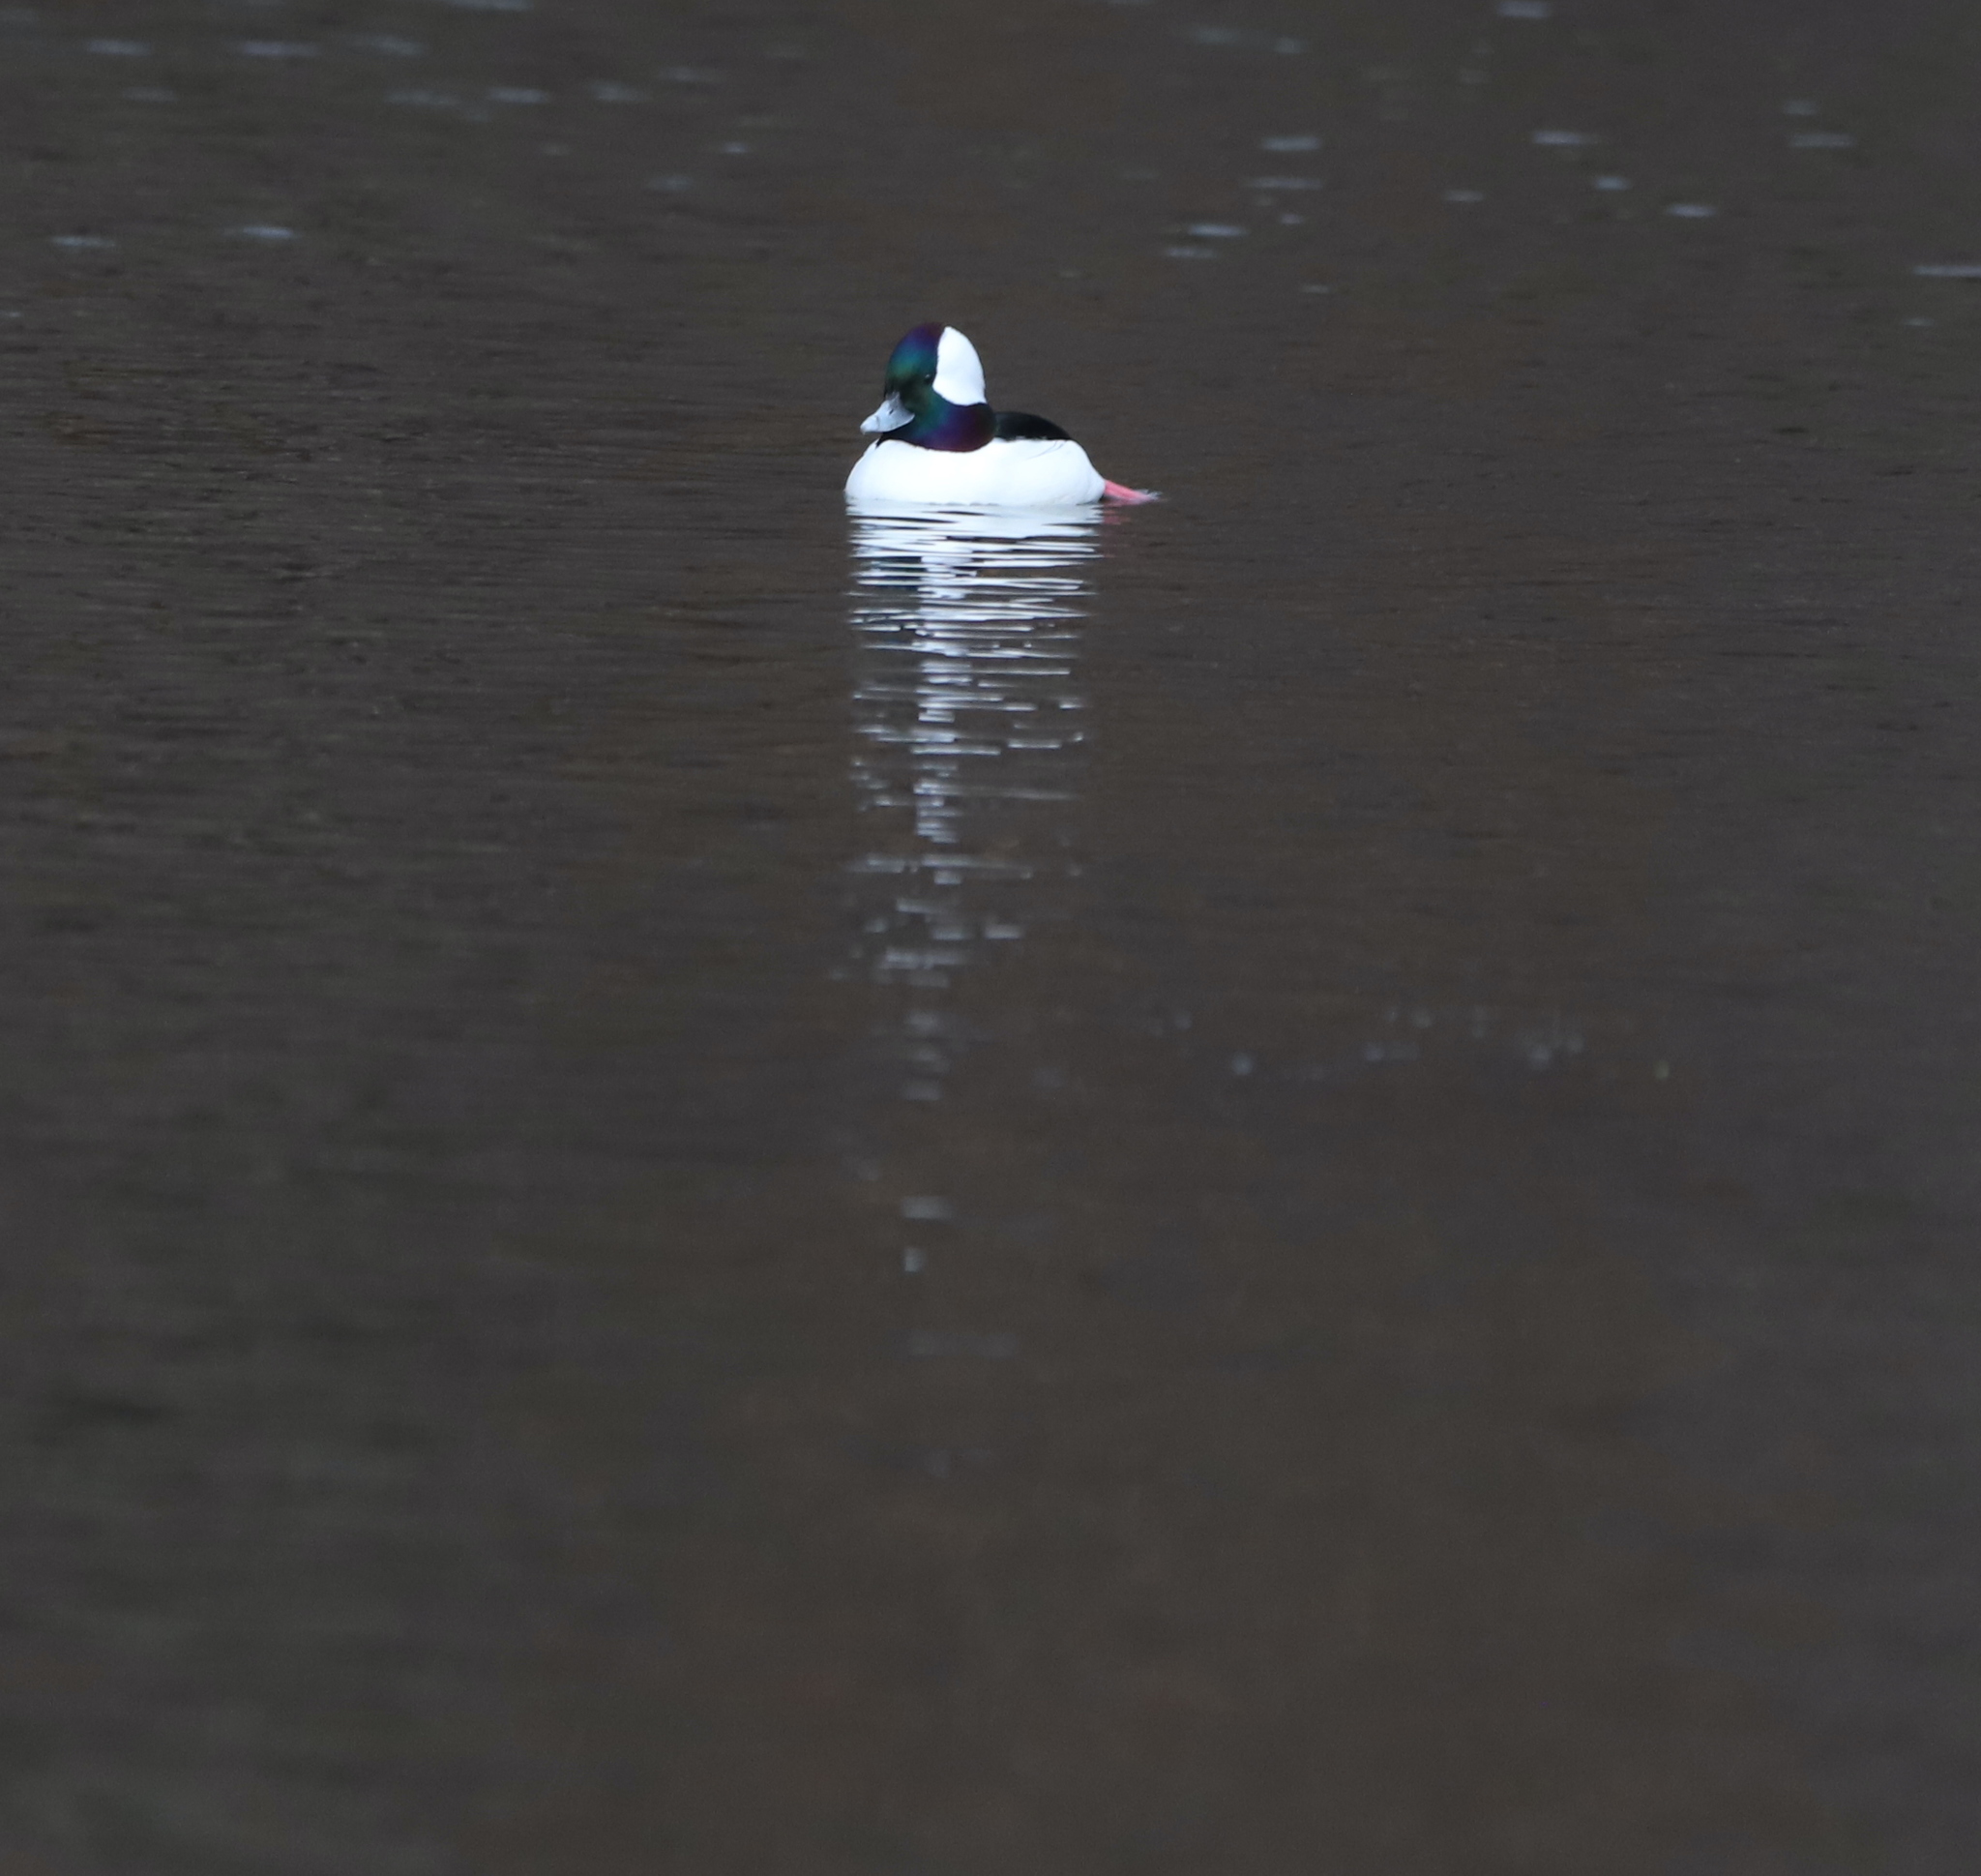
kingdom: Animalia
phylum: Chordata
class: Aves
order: Anseriformes
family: Anatidae
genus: Bucephala
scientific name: Bucephala albeola
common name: Bufflehead
